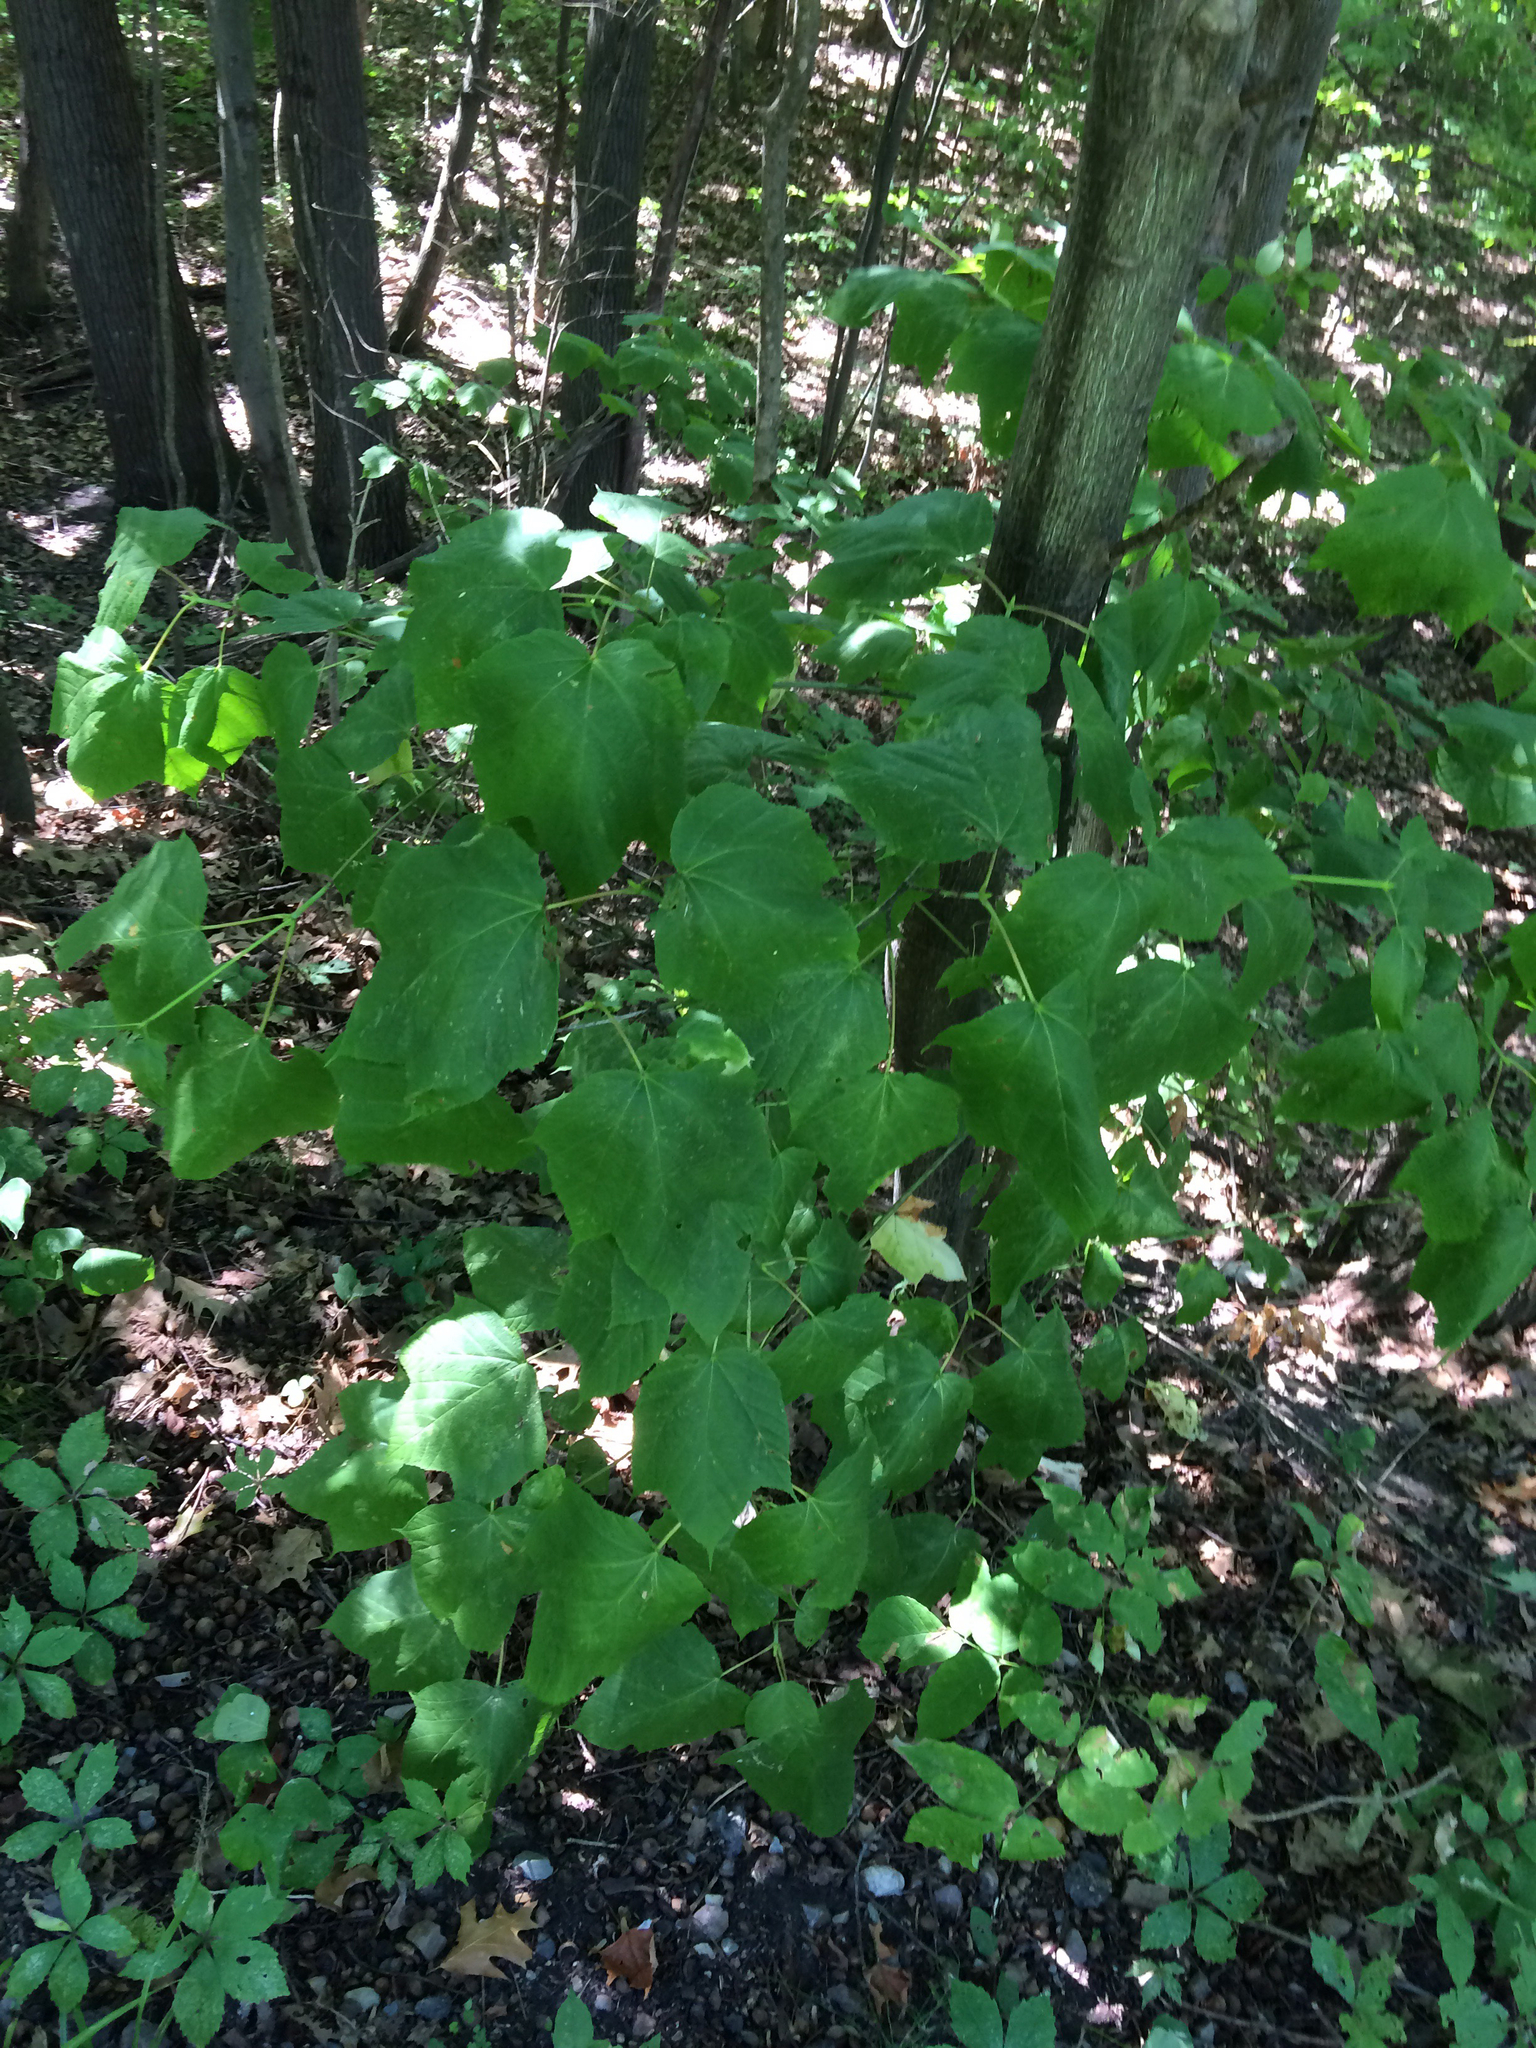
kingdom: Plantae
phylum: Tracheophyta
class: Magnoliopsida
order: Sapindales
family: Sapindaceae
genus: Acer
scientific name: Acer pensylvanicum
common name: Moosewood
